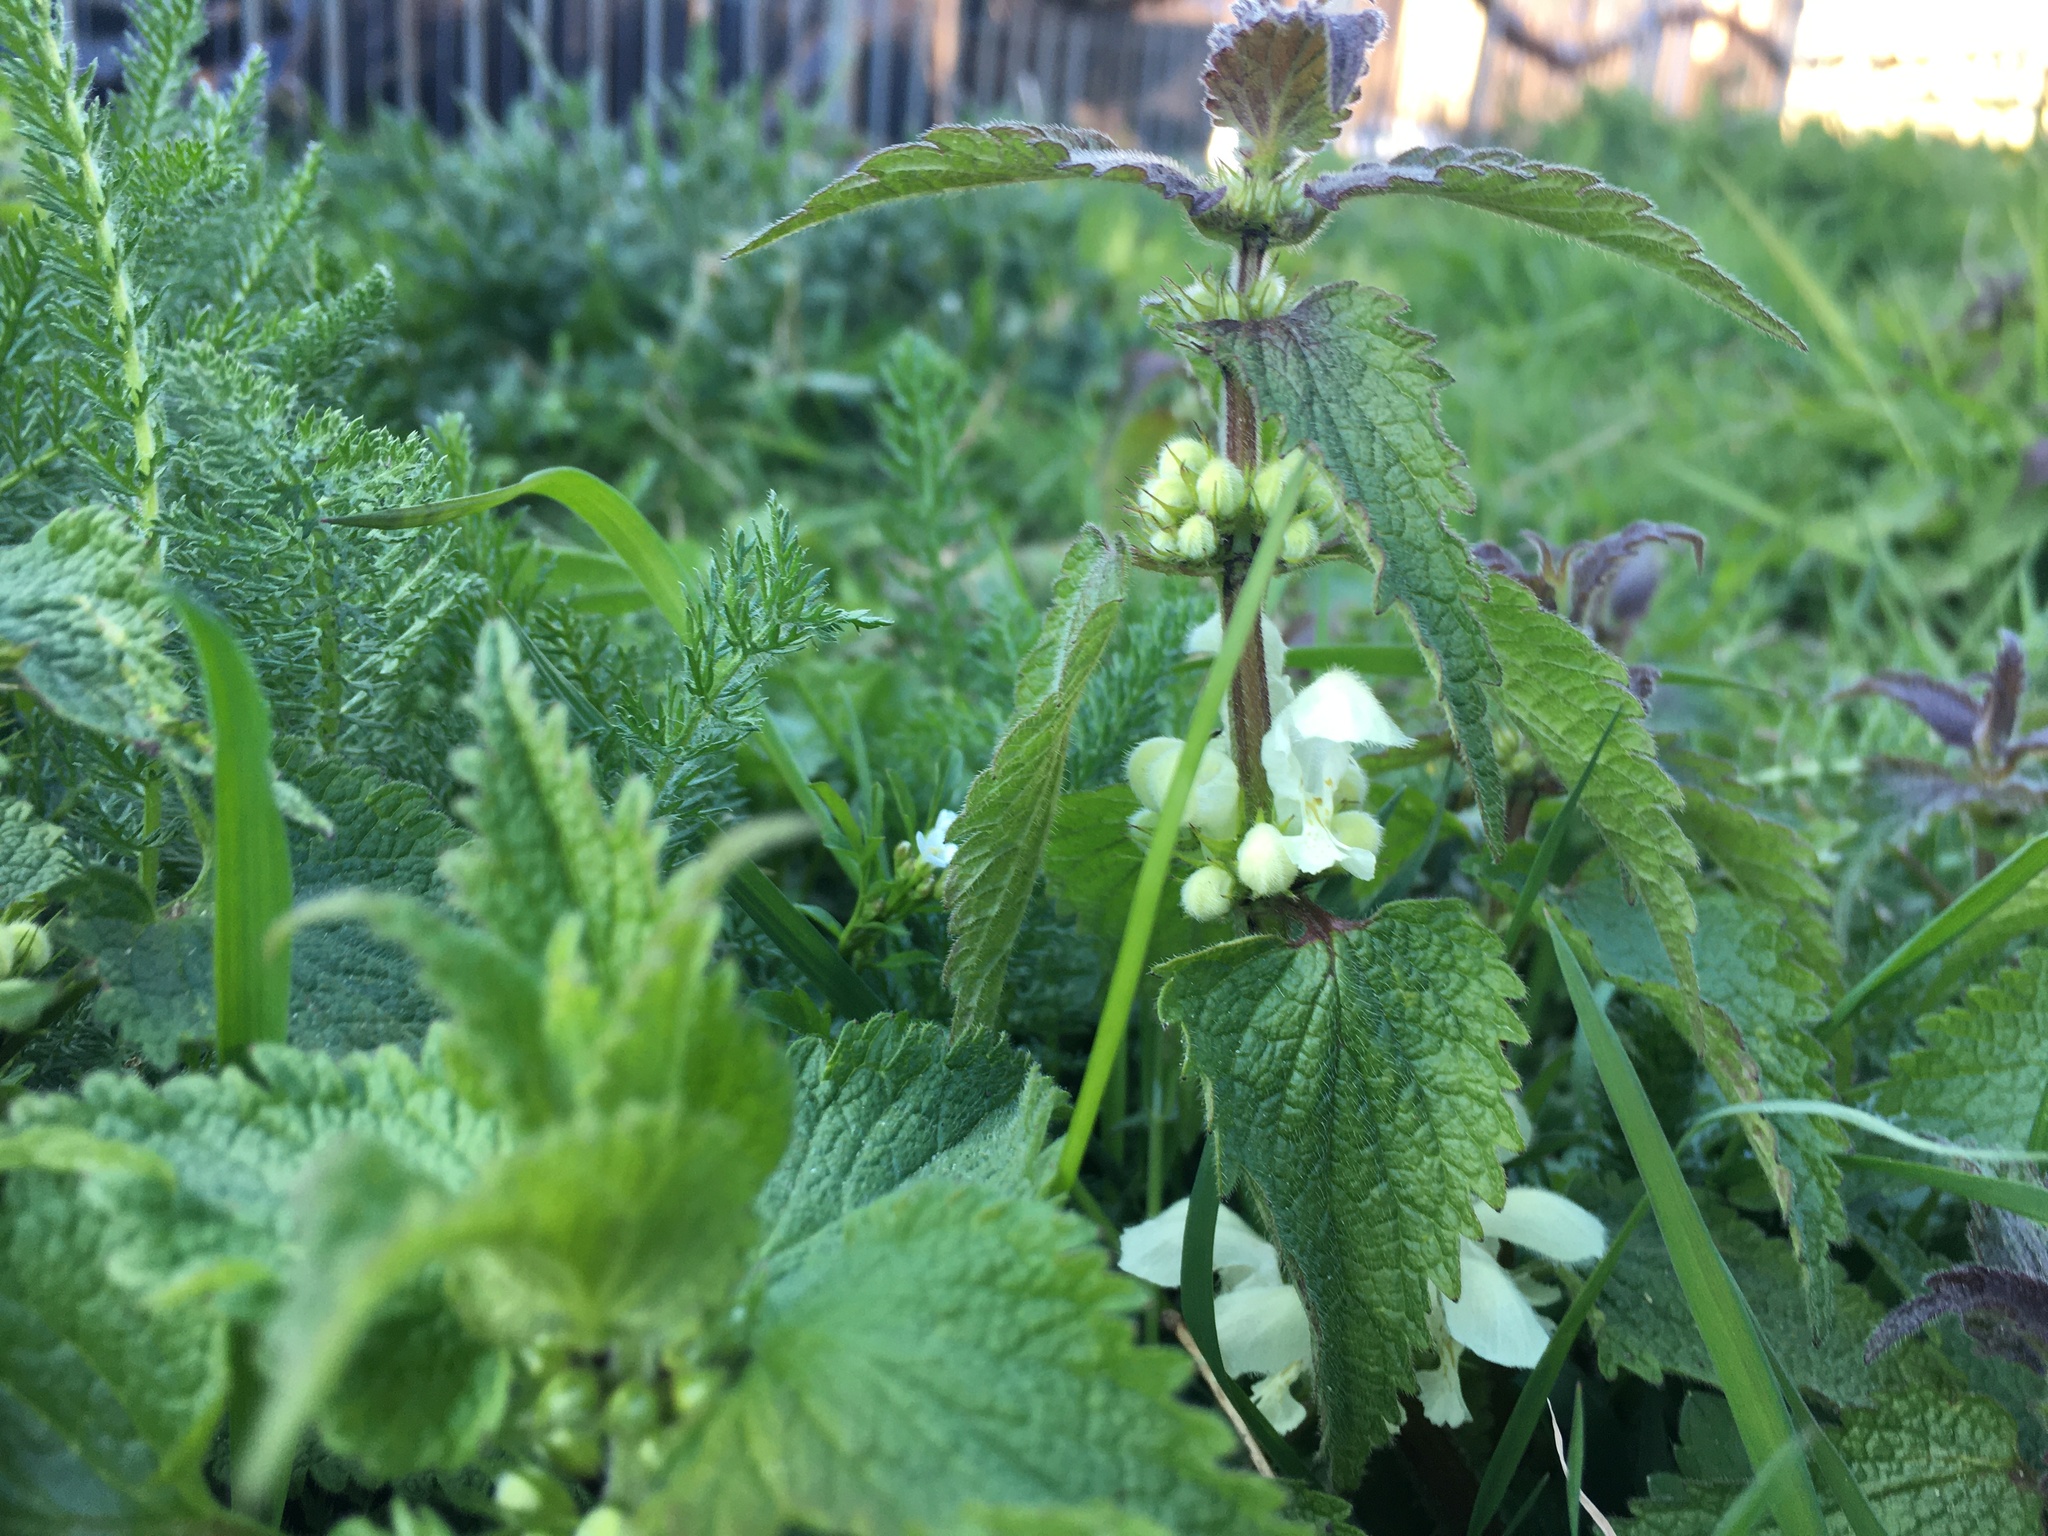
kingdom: Plantae
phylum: Tracheophyta
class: Magnoliopsida
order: Lamiales
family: Lamiaceae
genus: Lamium
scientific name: Lamium album
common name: White dead-nettle
